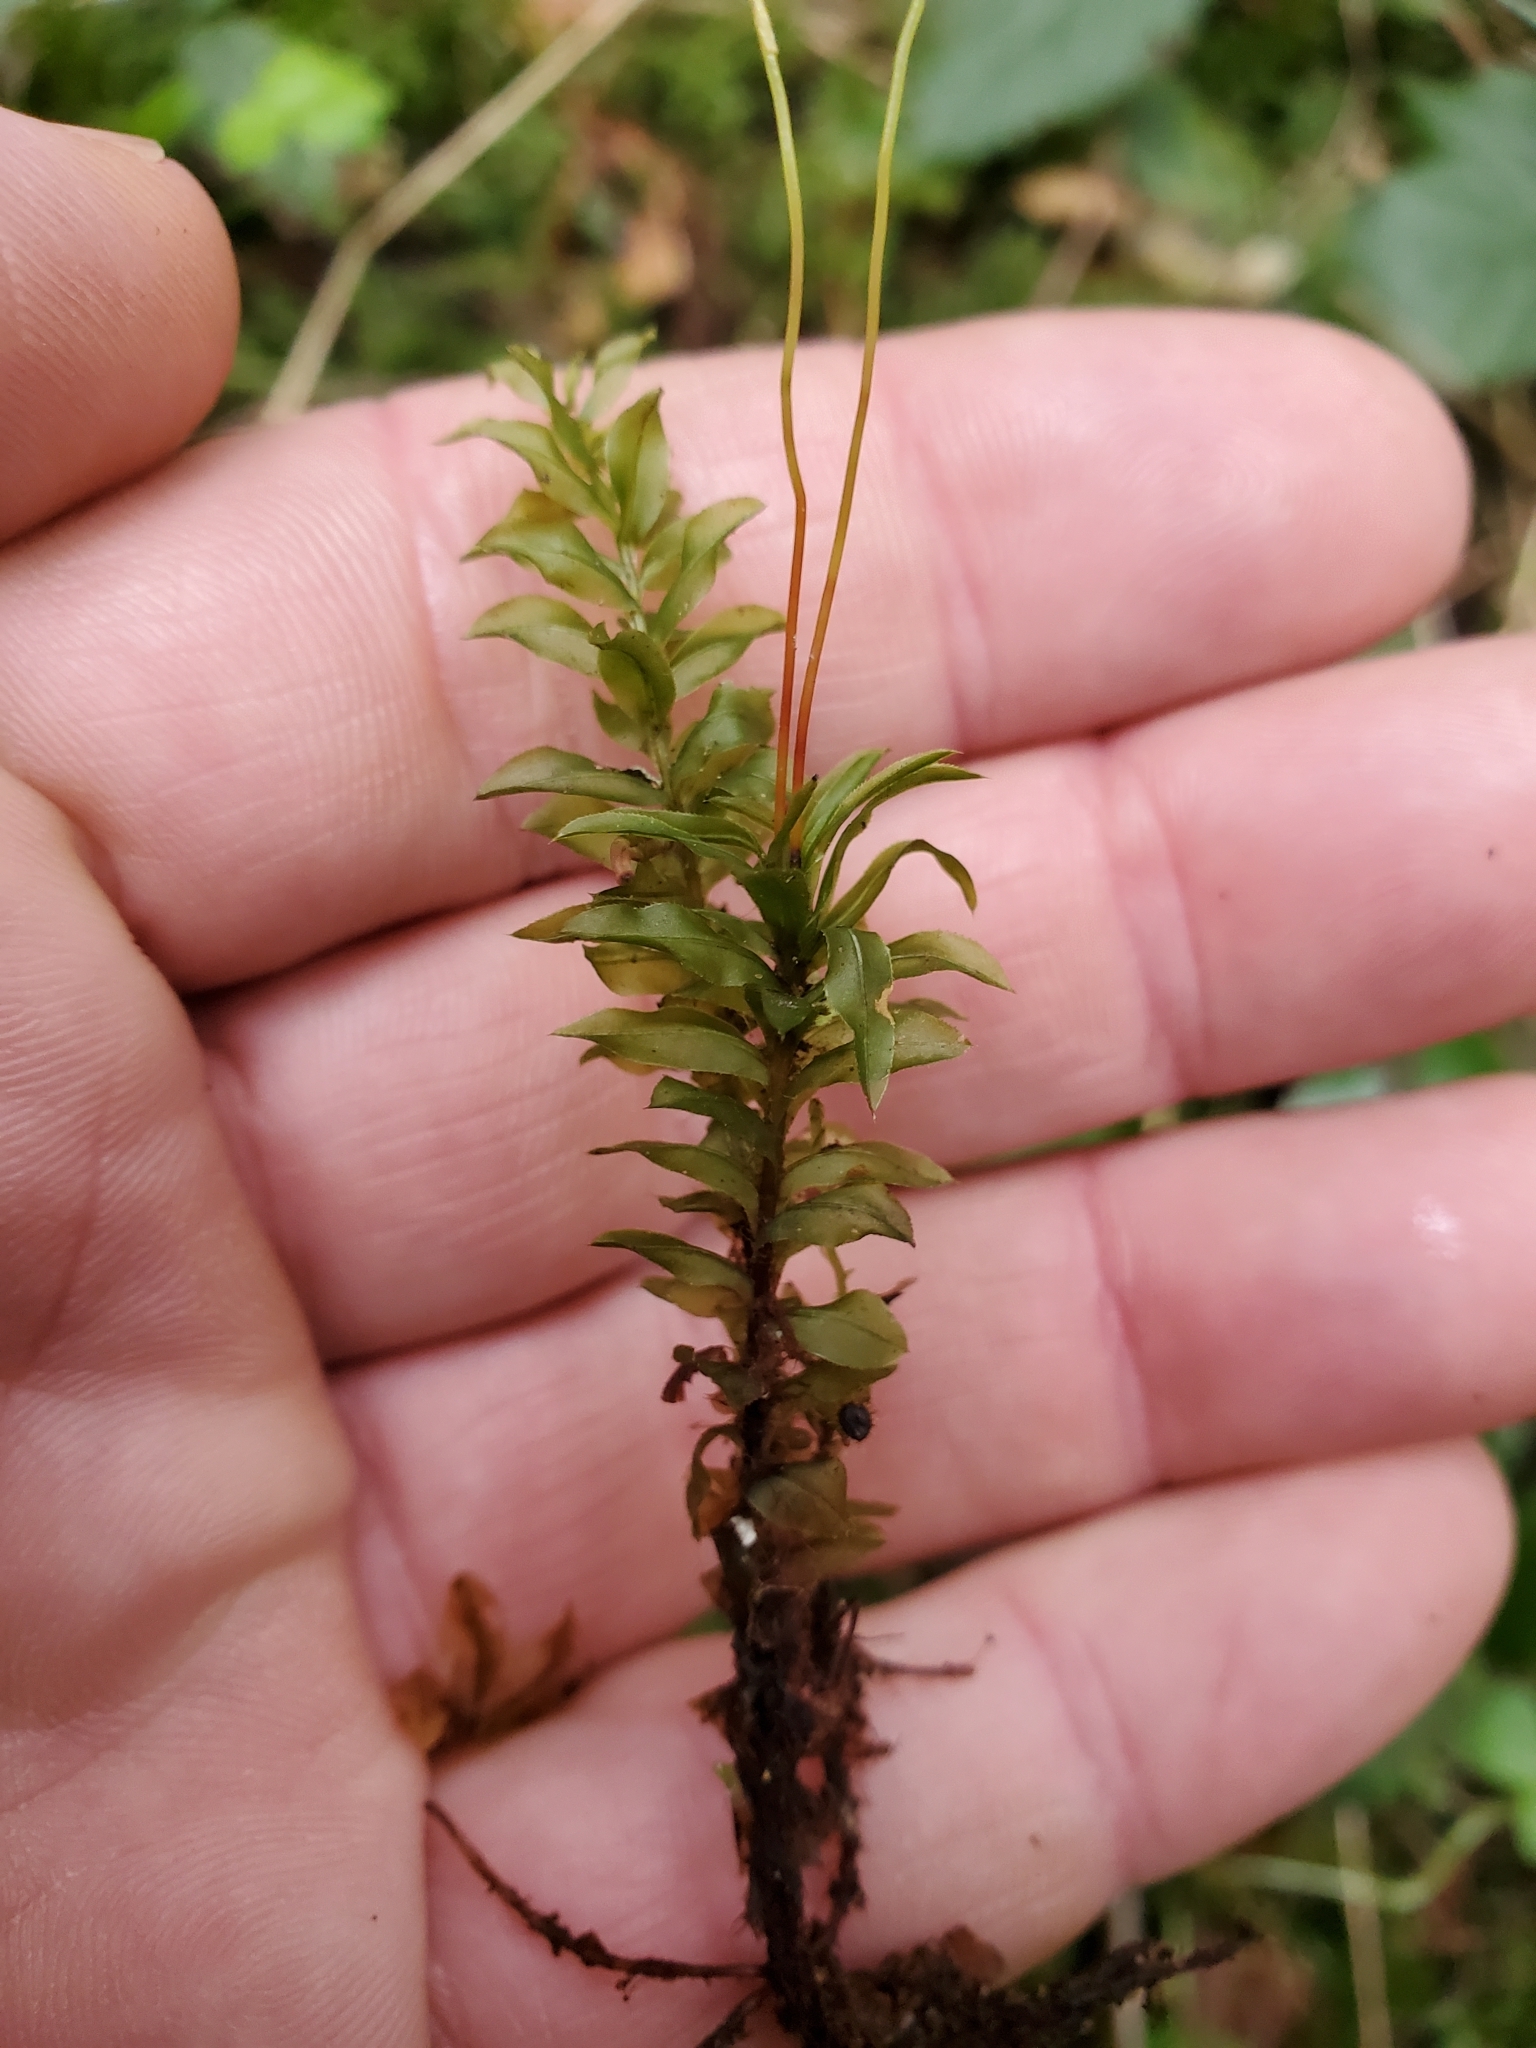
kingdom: Plantae
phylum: Bryophyta
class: Bryopsida
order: Bryales
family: Mniaceae
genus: Plagiomnium
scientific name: Plagiomnium insigne
